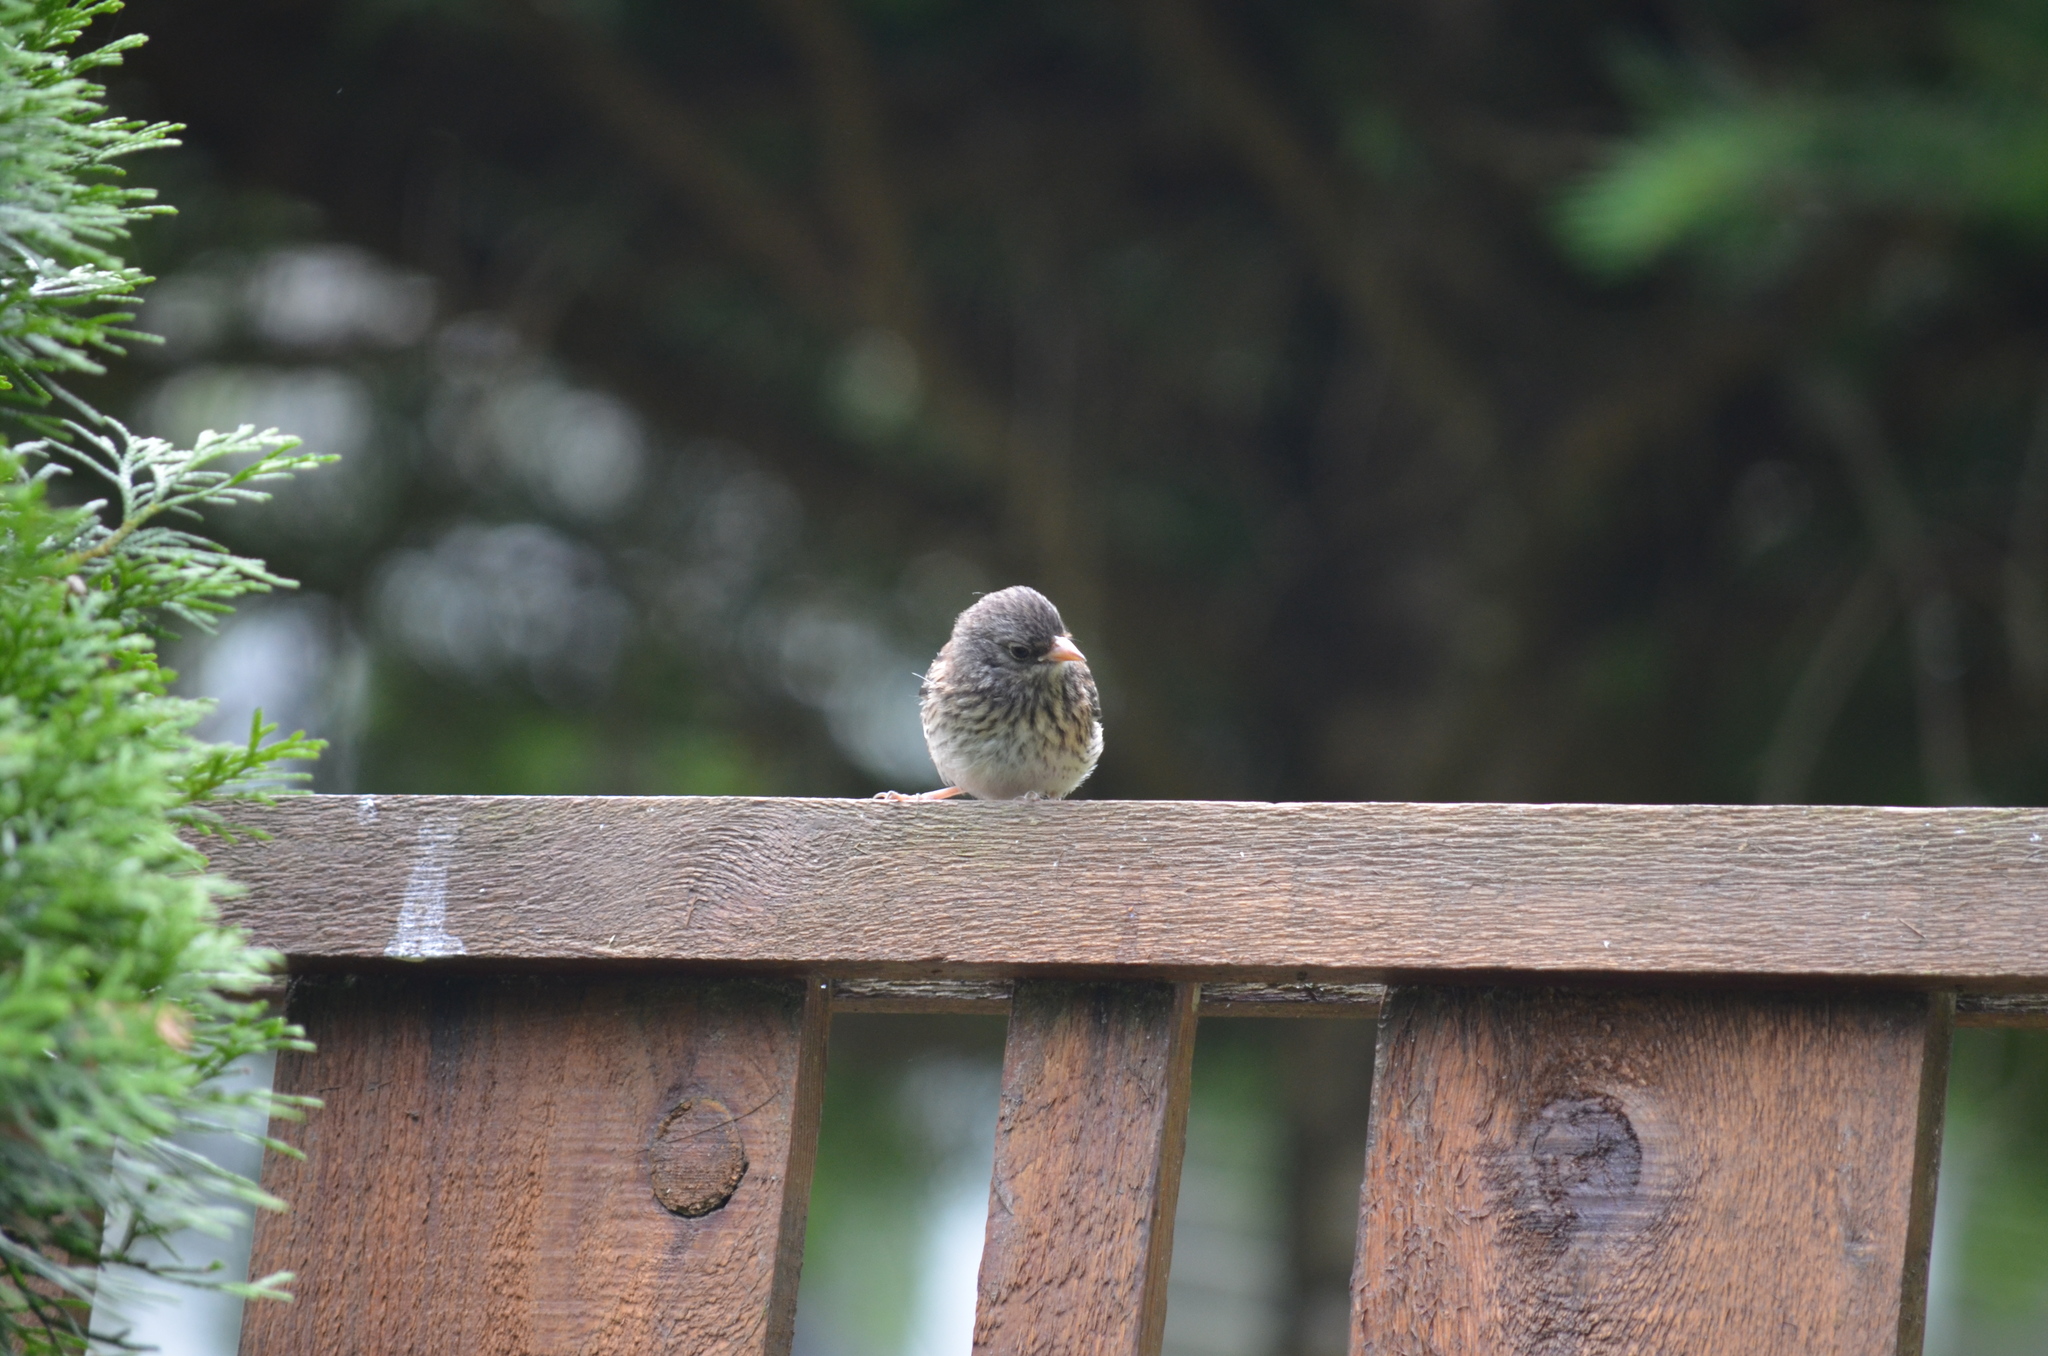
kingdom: Animalia
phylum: Chordata
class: Aves
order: Passeriformes
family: Passerellidae
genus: Junco
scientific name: Junco hyemalis
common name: Dark-eyed junco
